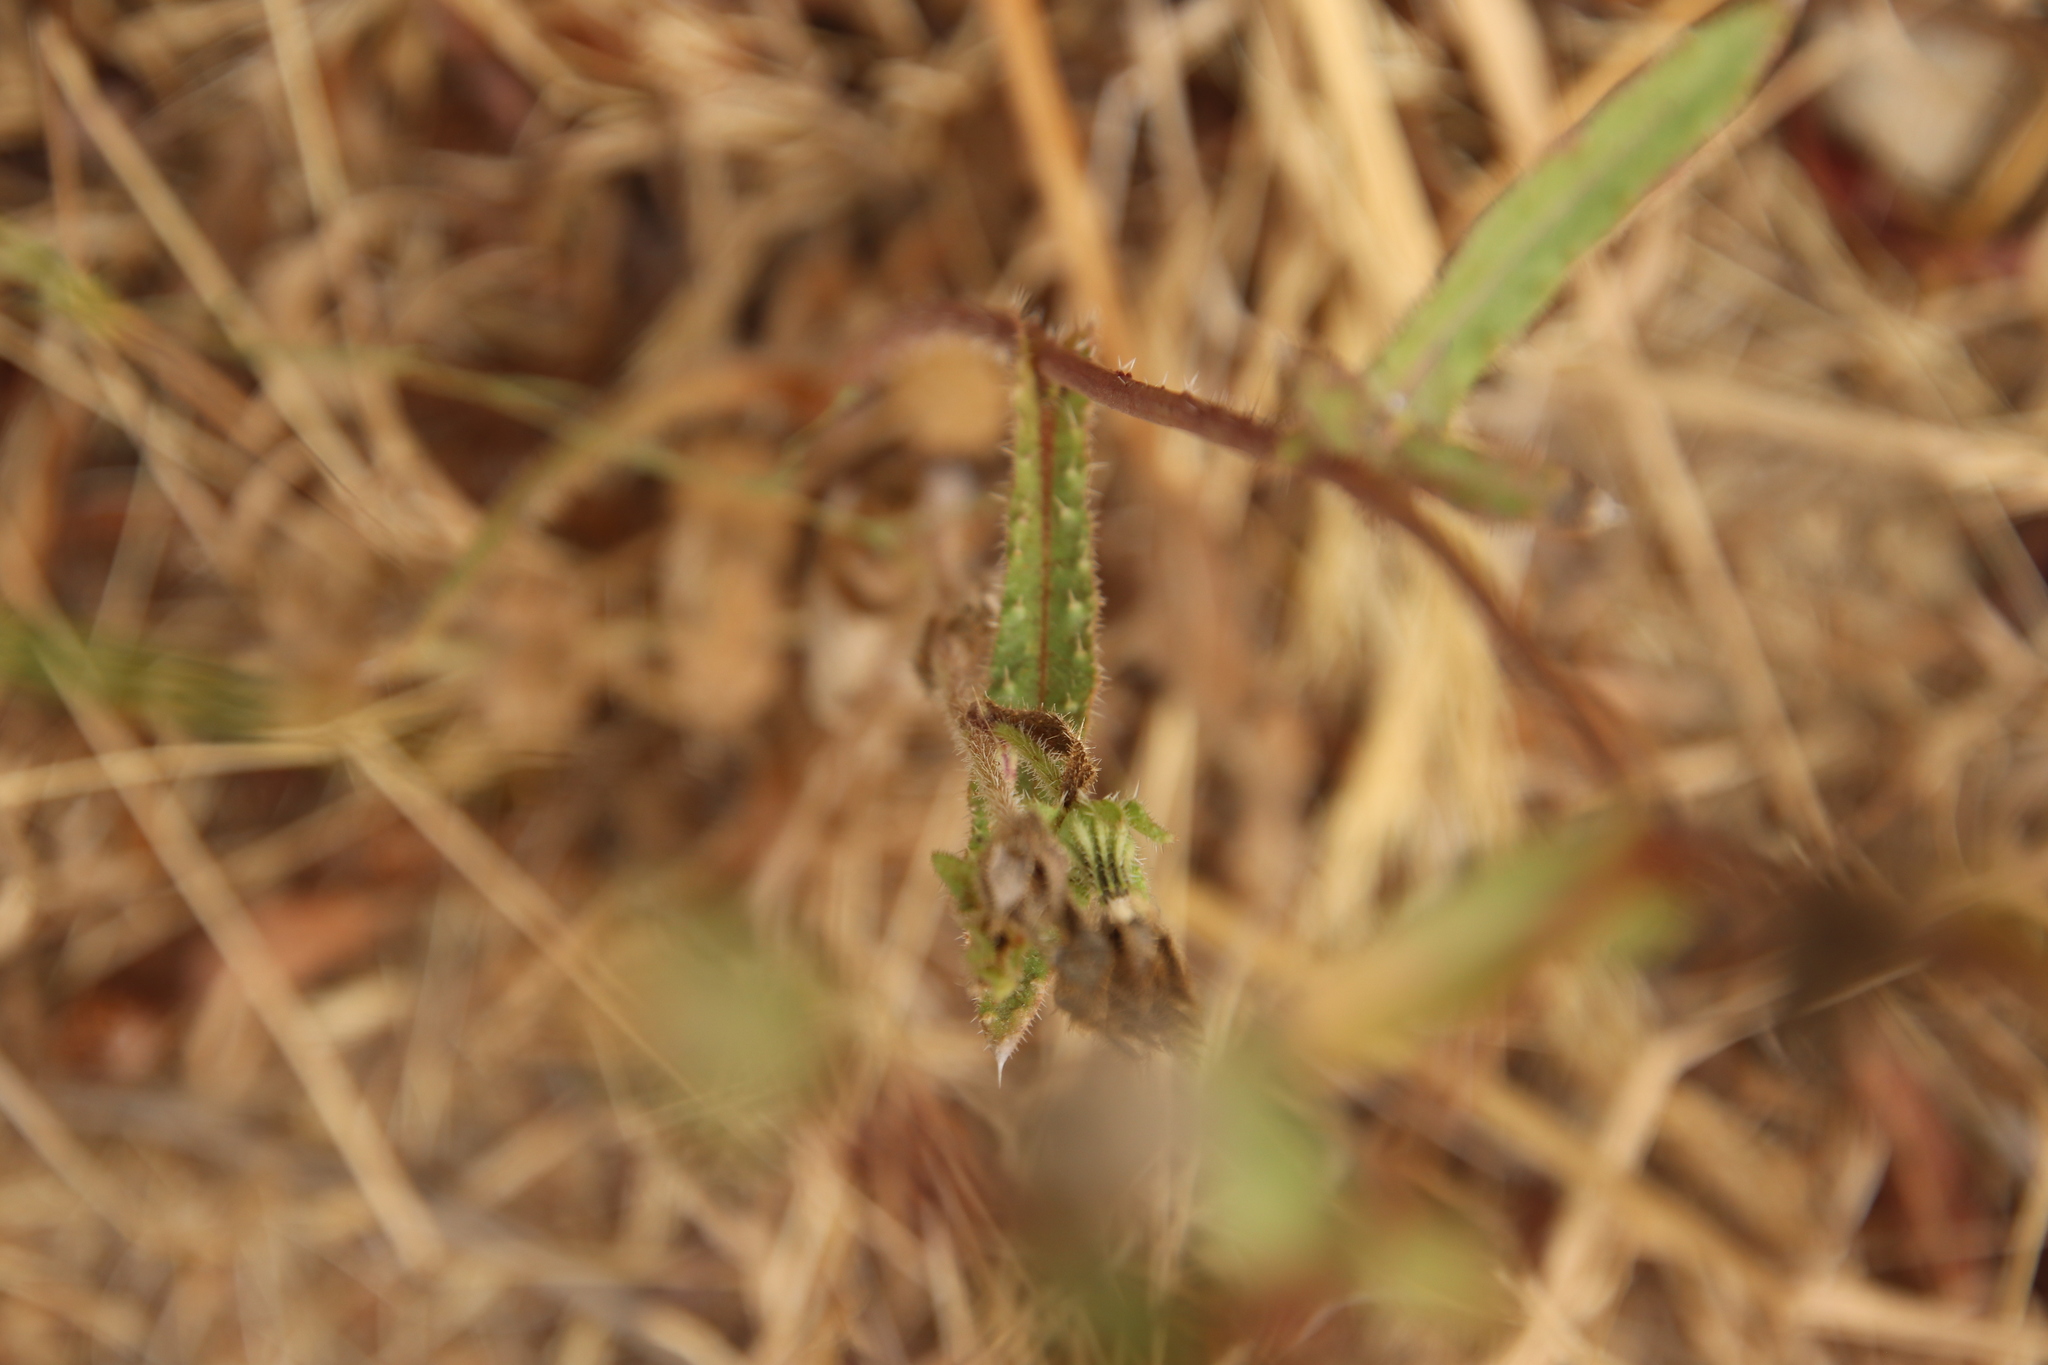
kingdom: Plantae
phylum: Tracheophyta
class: Magnoliopsida
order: Asterales
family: Asteraceae
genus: Helminthotheca
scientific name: Helminthotheca echioides
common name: Ox-tongue
